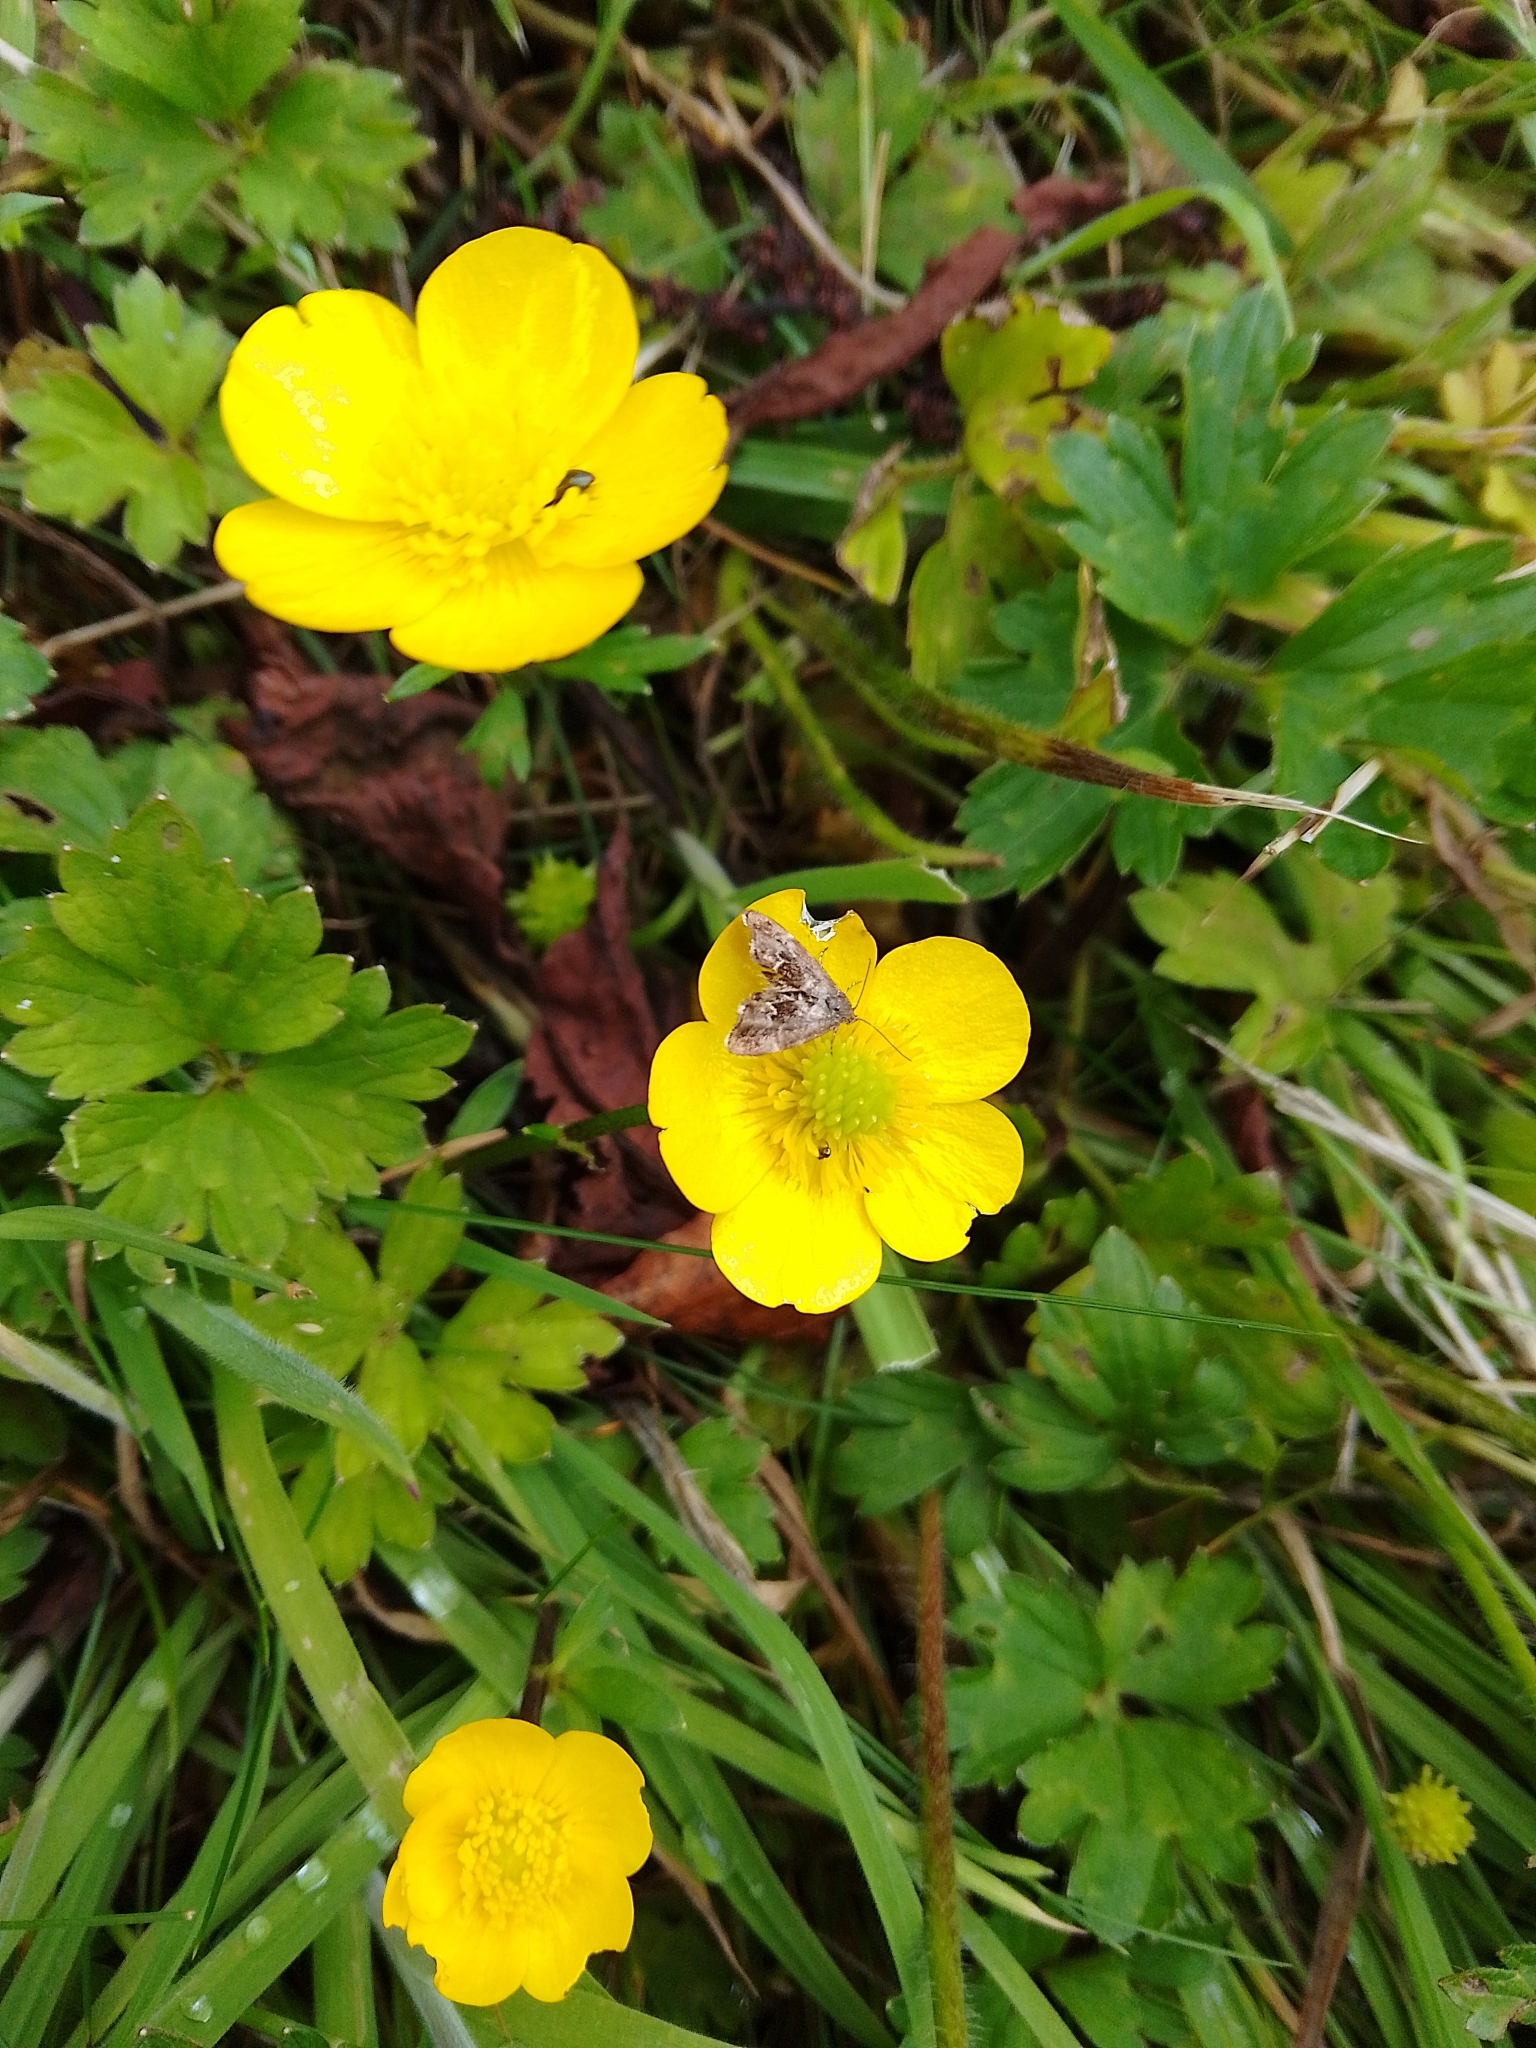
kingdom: Animalia
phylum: Arthropoda
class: Insecta
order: Lepidoptera
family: Choreutidae
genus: Anthophila
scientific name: Anthophila fabriciana
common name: Nettle-tap
